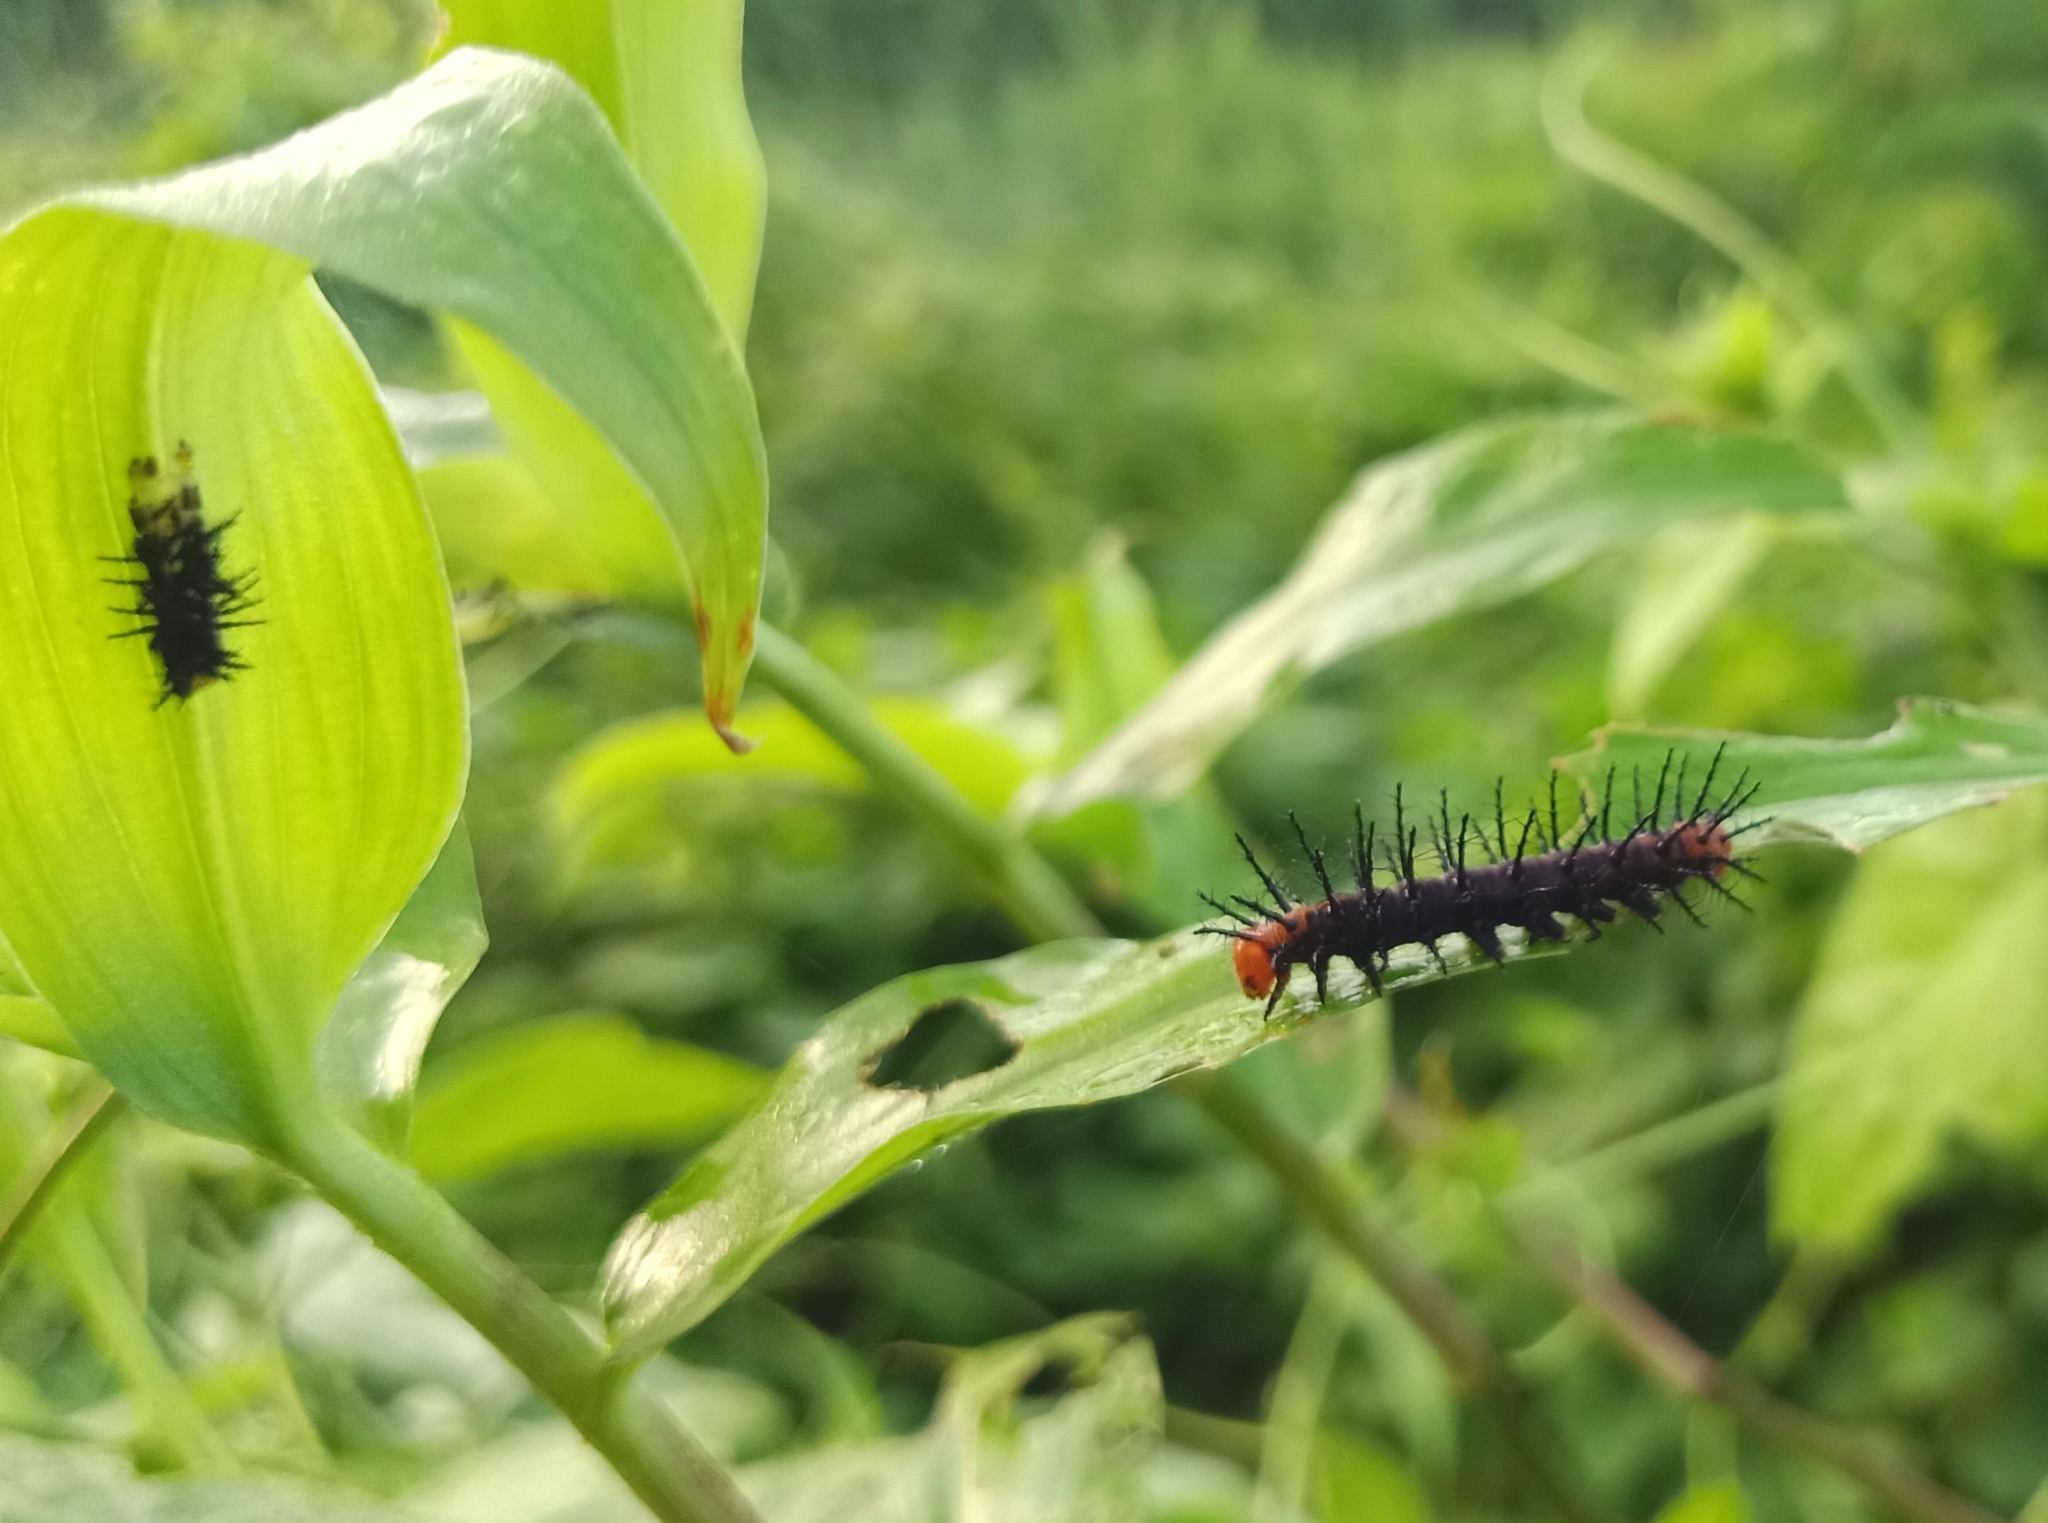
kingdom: Animalia
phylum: Arthropoda
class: Insecta
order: Lepidoptera
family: Nymphalidae
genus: Acraea
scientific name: Acraea terpsicore
